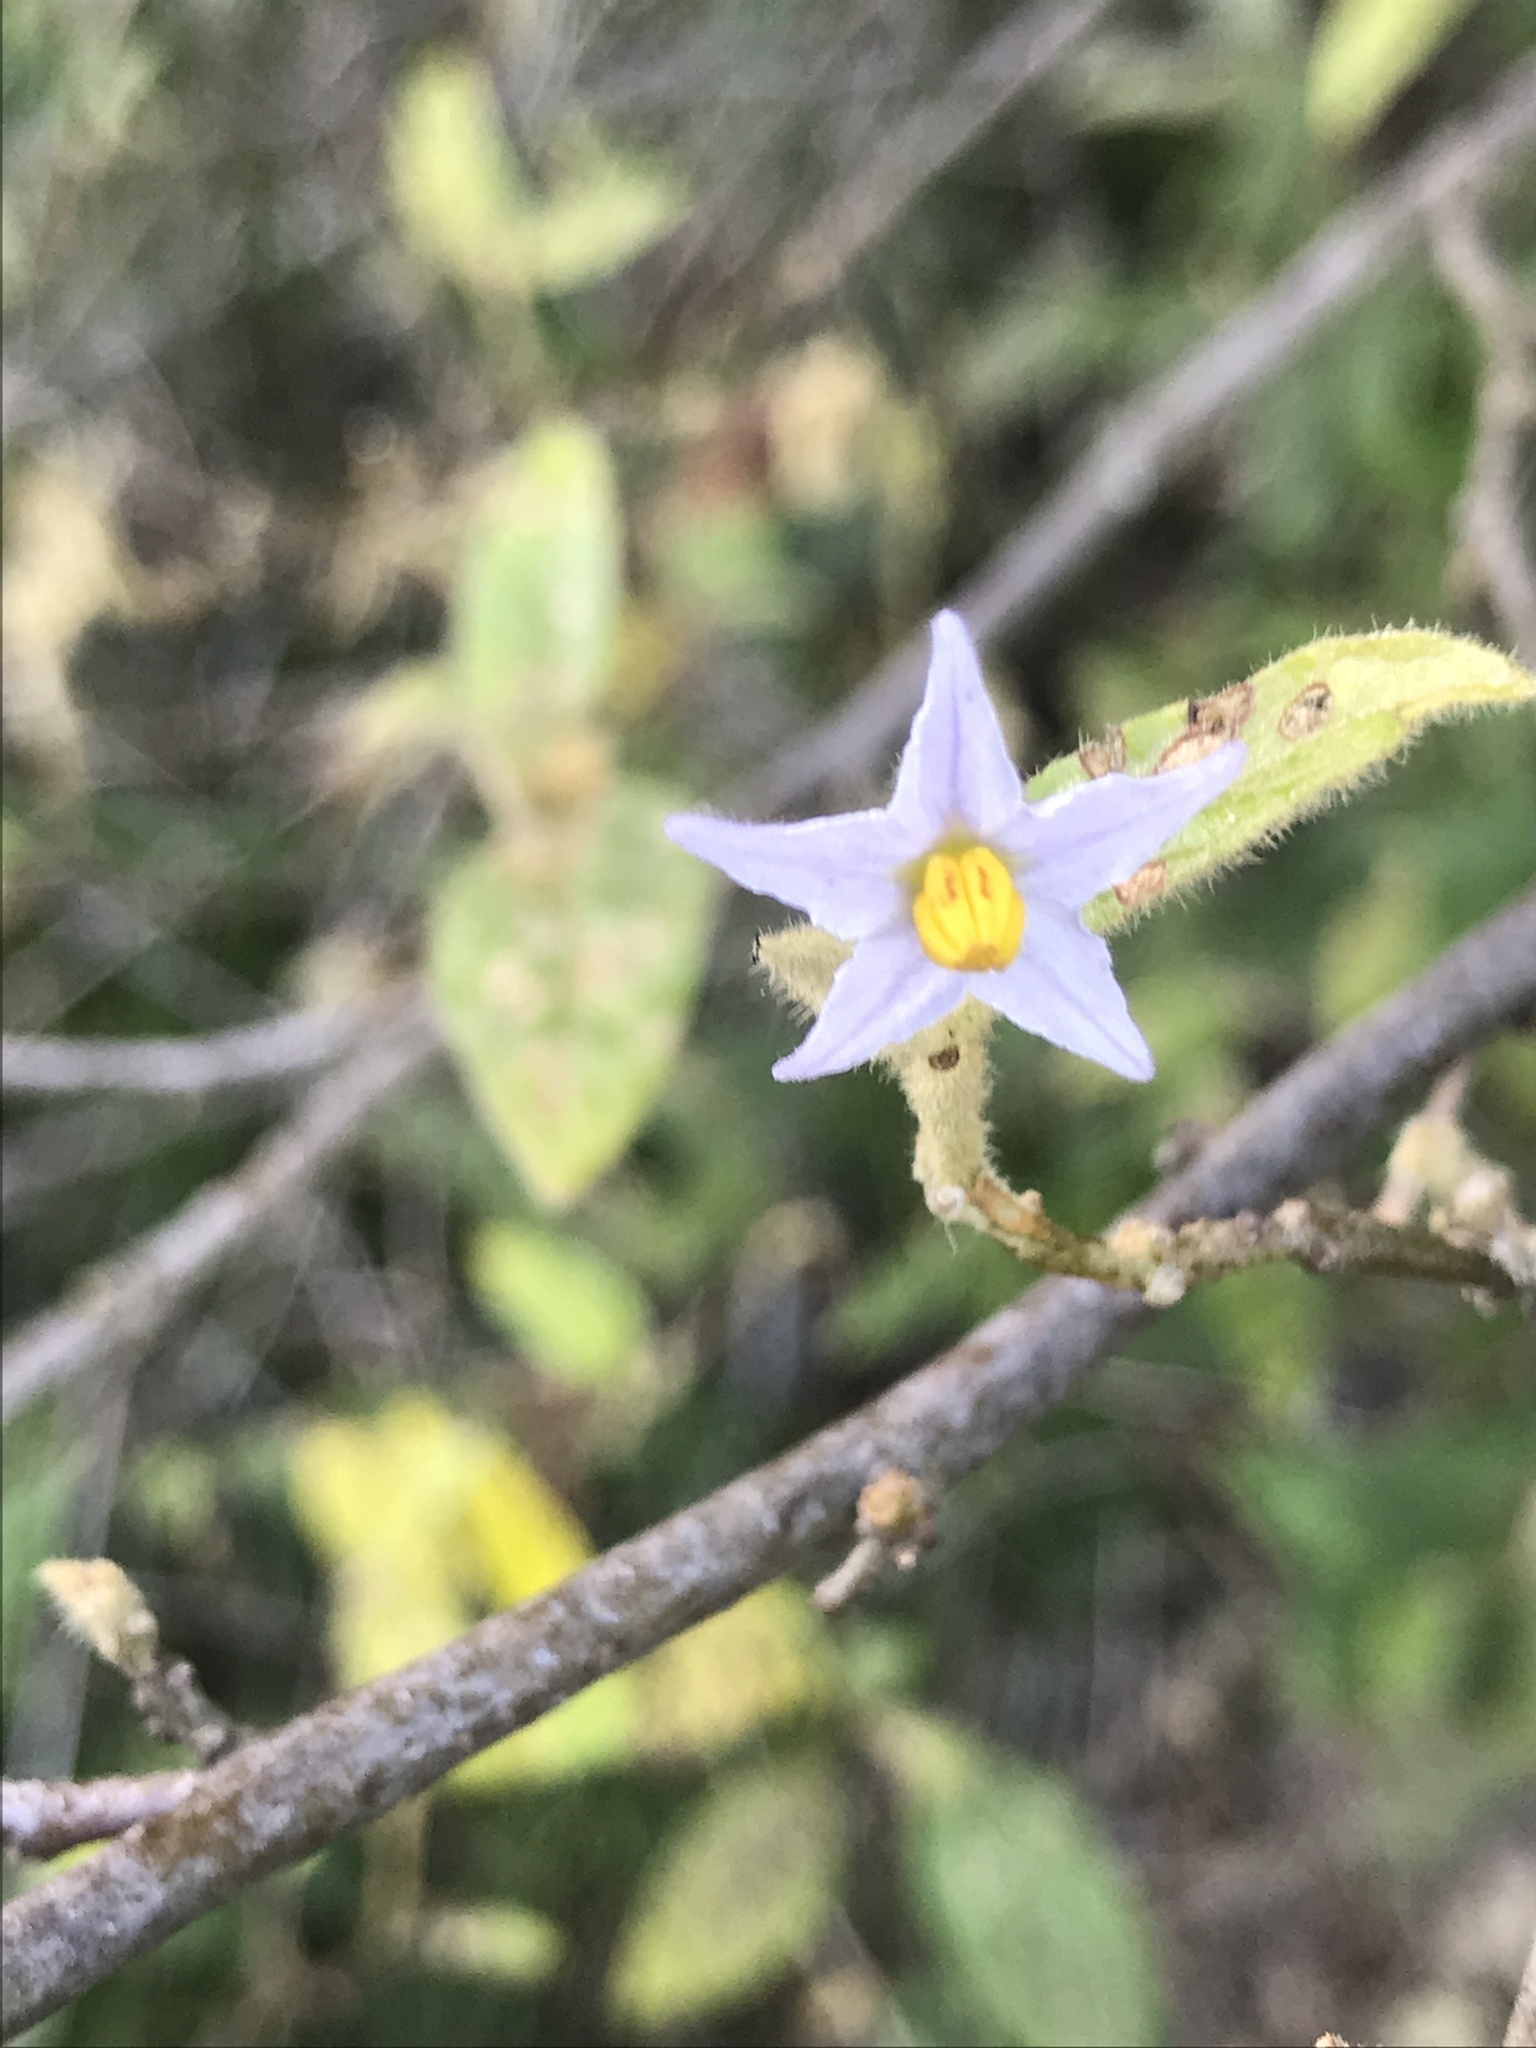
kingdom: Plantae
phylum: Tracheophyta
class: Magnoliopsida
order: Solanales
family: Solanaceae
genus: Solanum
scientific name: Solanum stelligerum
